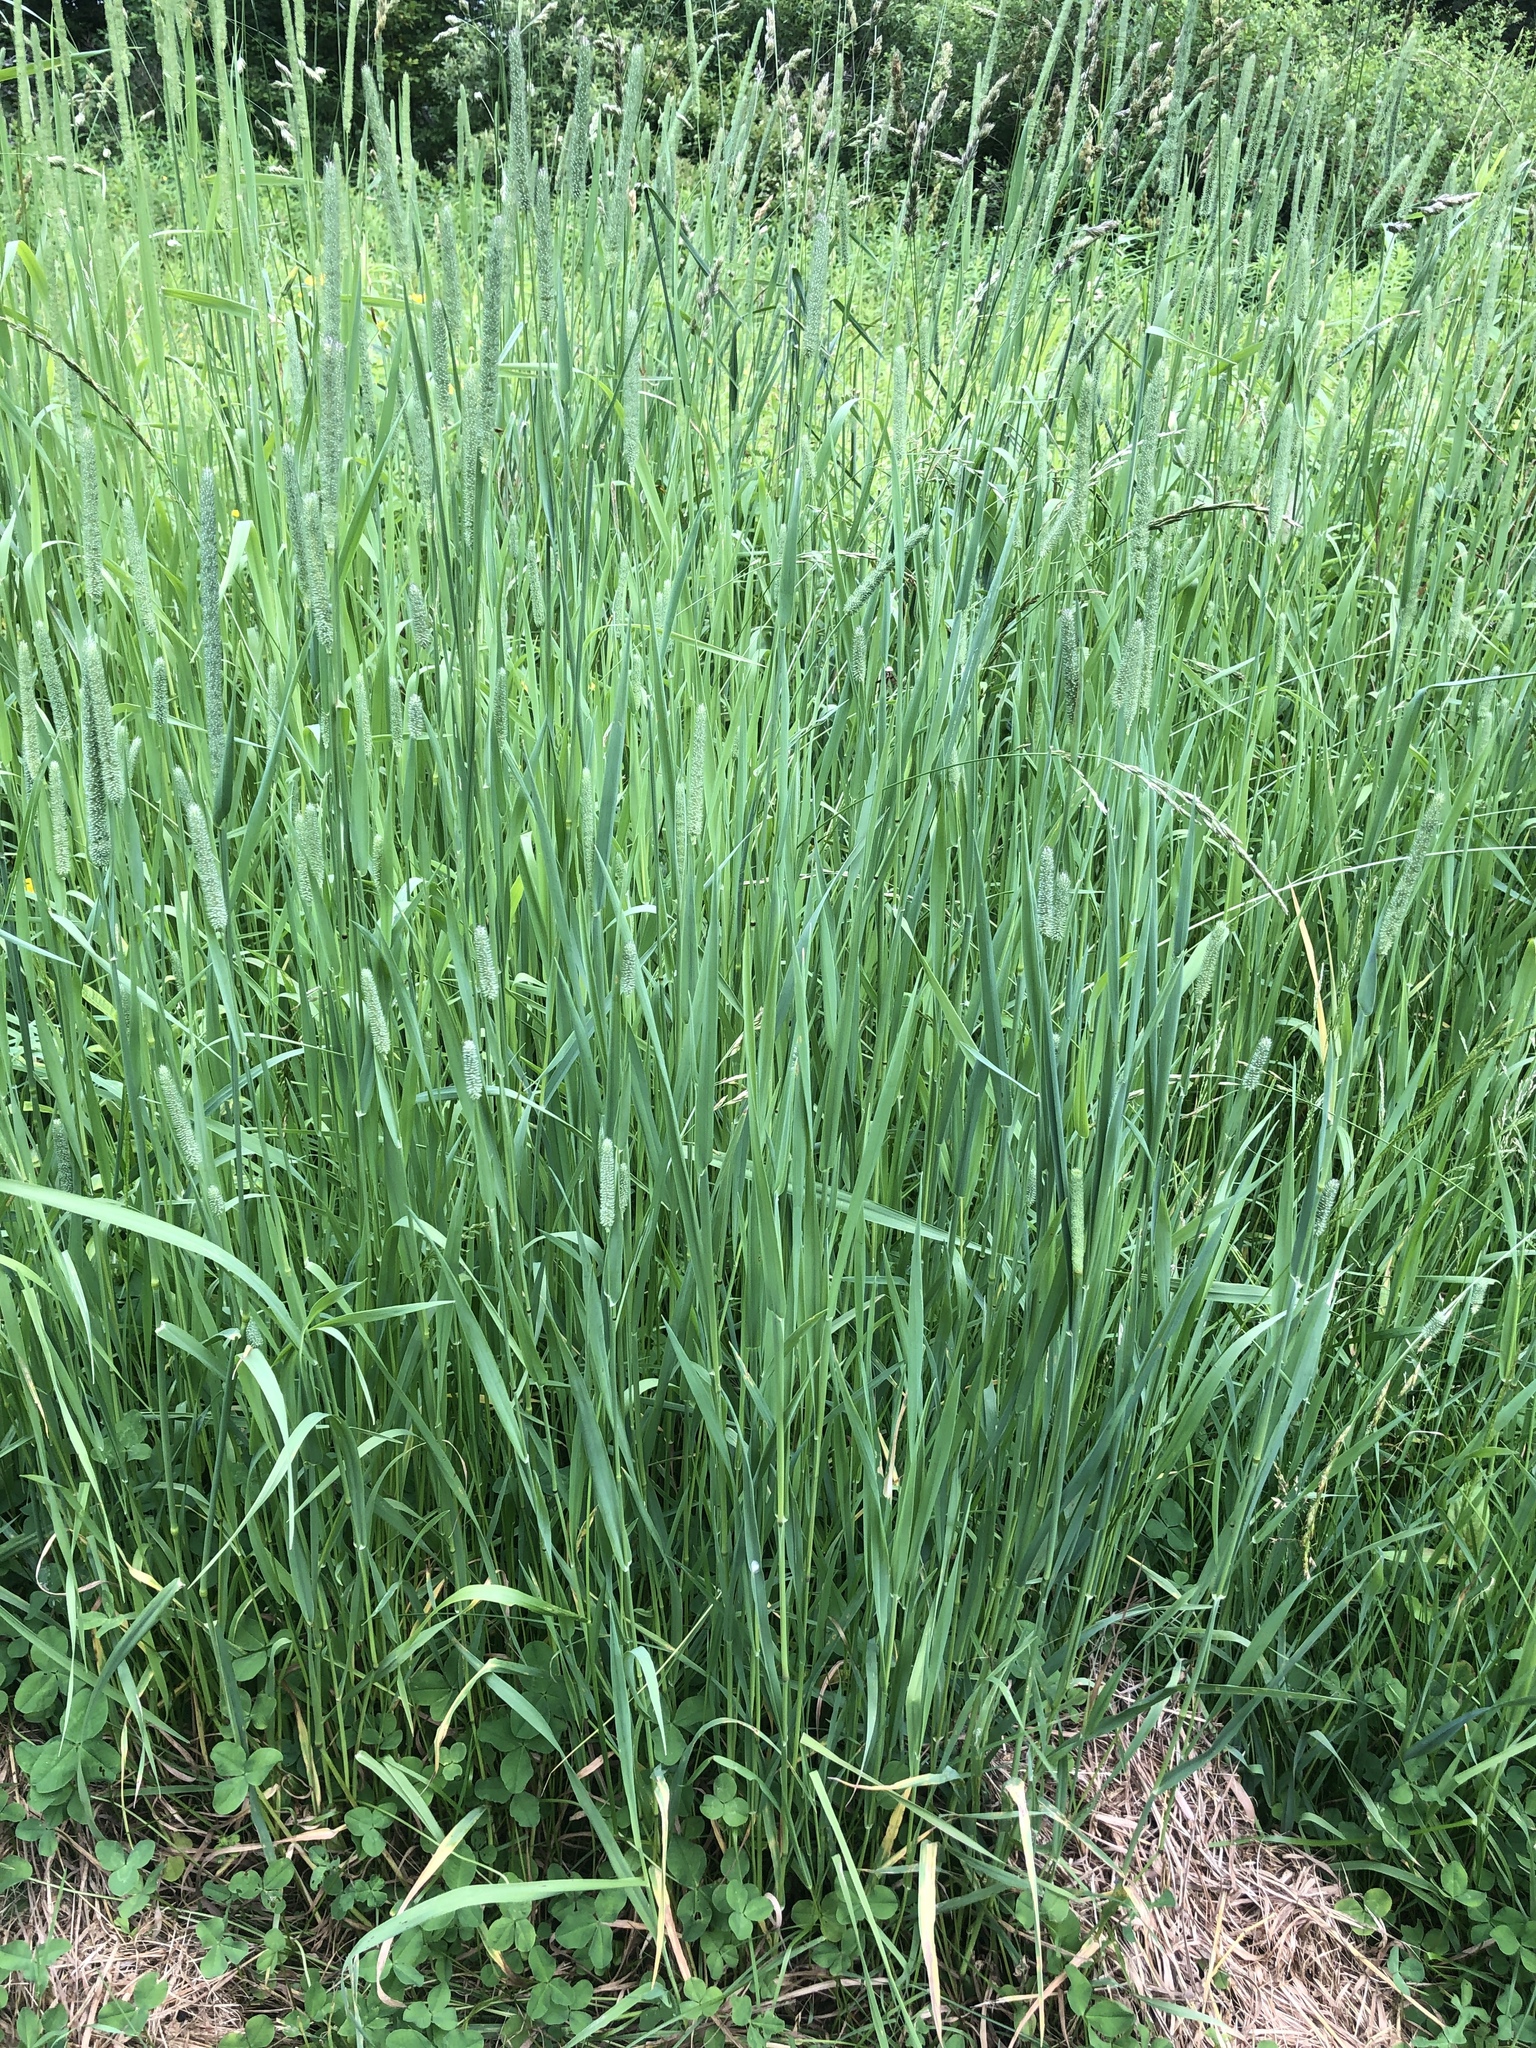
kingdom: Plantae
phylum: Tracheophyta
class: Liliopsida
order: Poales
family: Poaceae
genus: Phleum
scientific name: Phleum pratense
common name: Timothy grass
